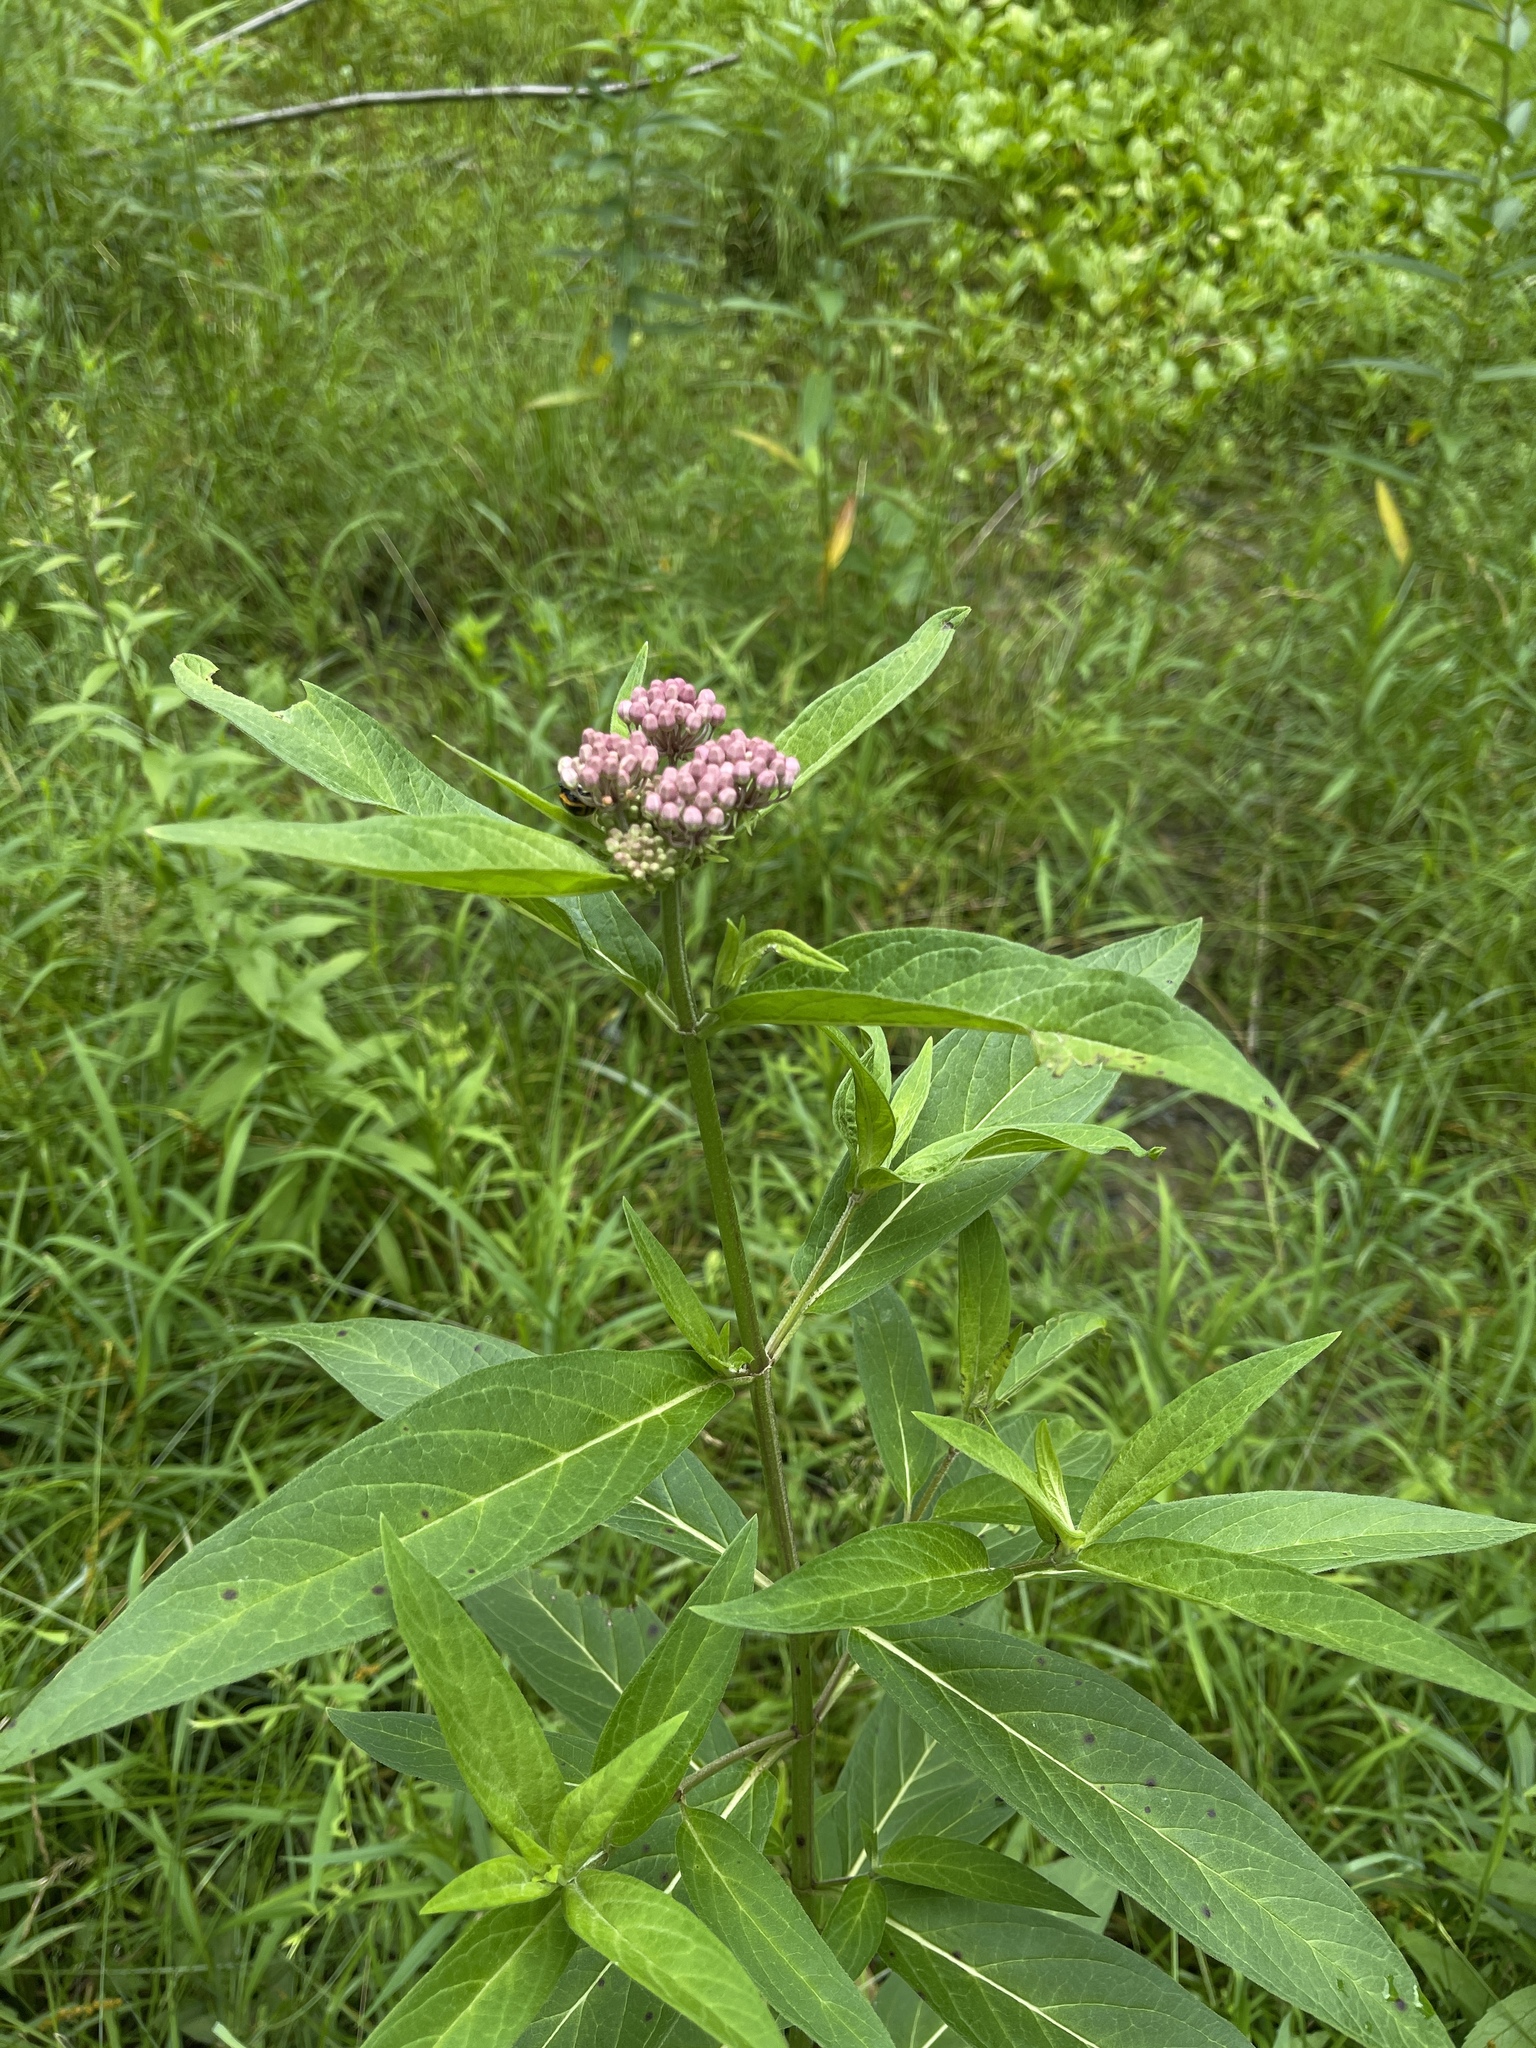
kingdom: Plantae
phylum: Tracheophyta
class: Magnoliopsida
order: Gentianales
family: Apocynaceae
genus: Asclepias
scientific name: Asclepias incarnata
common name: Swamp milkweed
